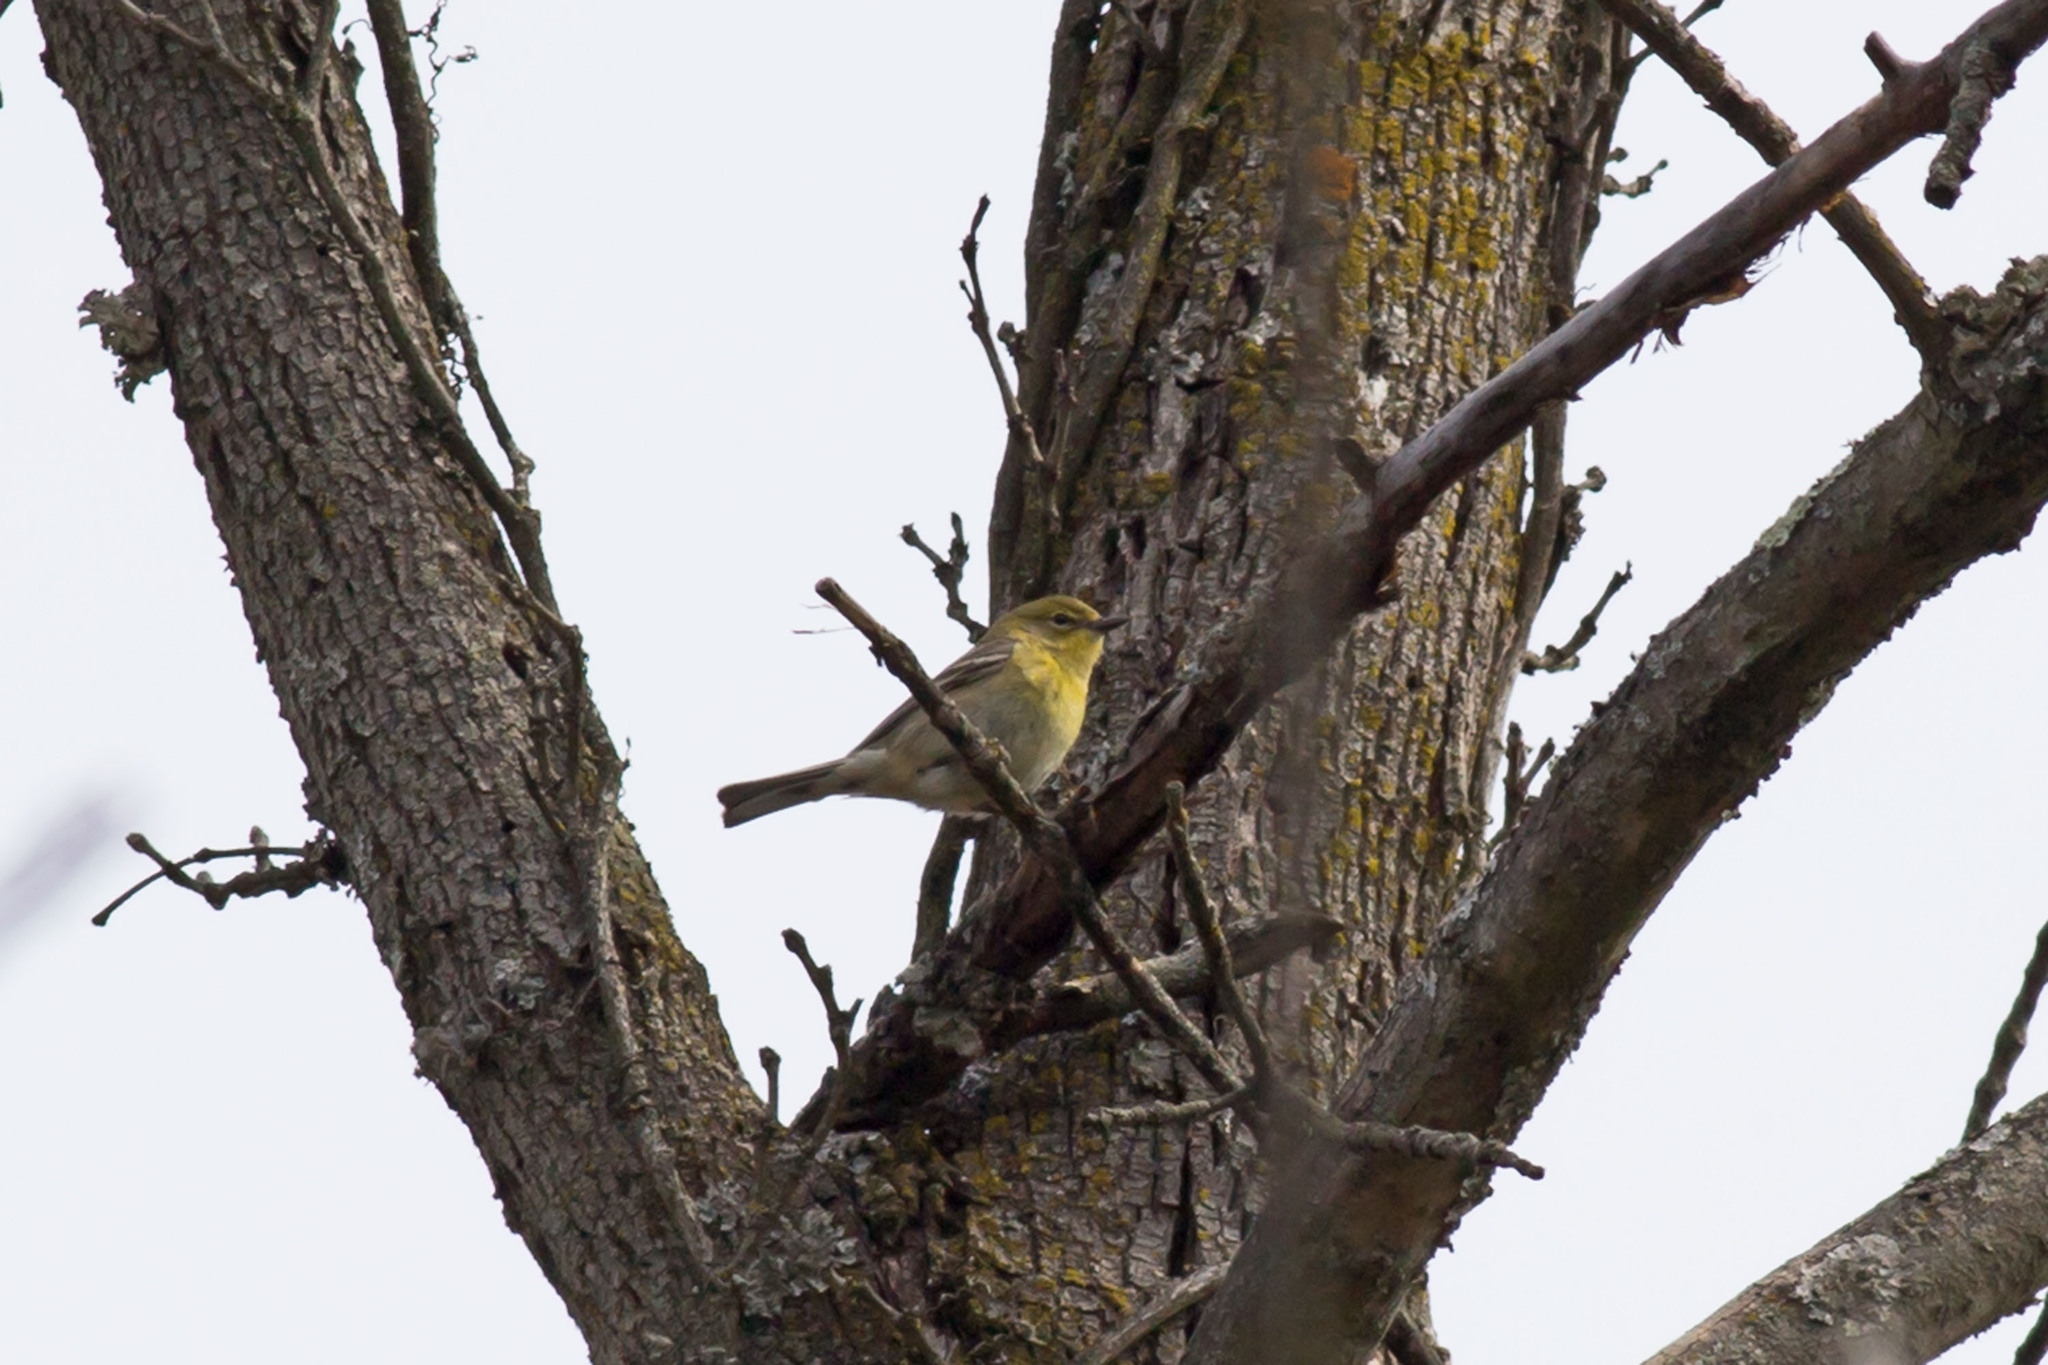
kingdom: Animalia
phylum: Chordata
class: Aves
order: Passeriformes
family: Parulidae
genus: Setophaga
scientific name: Setophaga pinus
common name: Pine warbler
